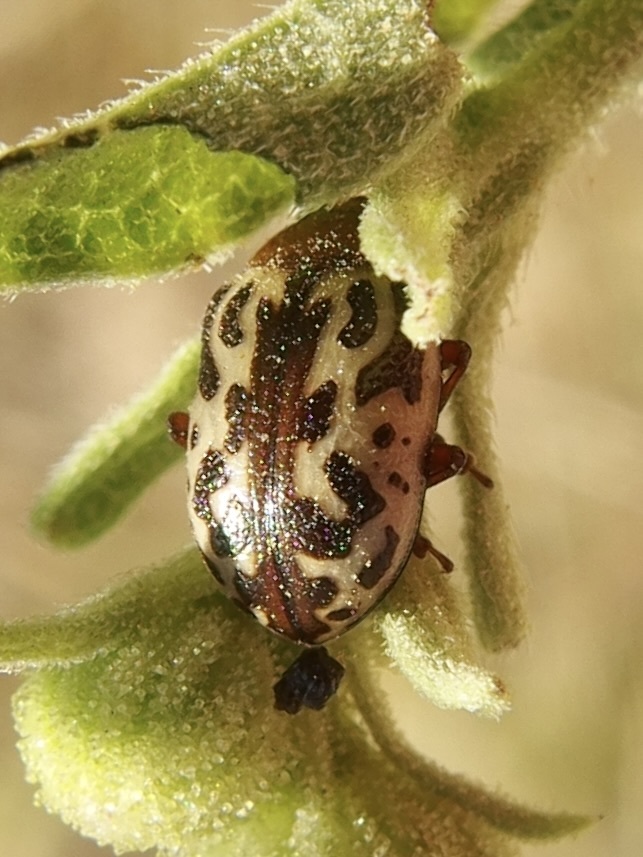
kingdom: Animalia
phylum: Arthropoda
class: Insecta
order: Coleoptera
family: Chrysomelidae
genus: Calligrapha
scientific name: Calligrapha
